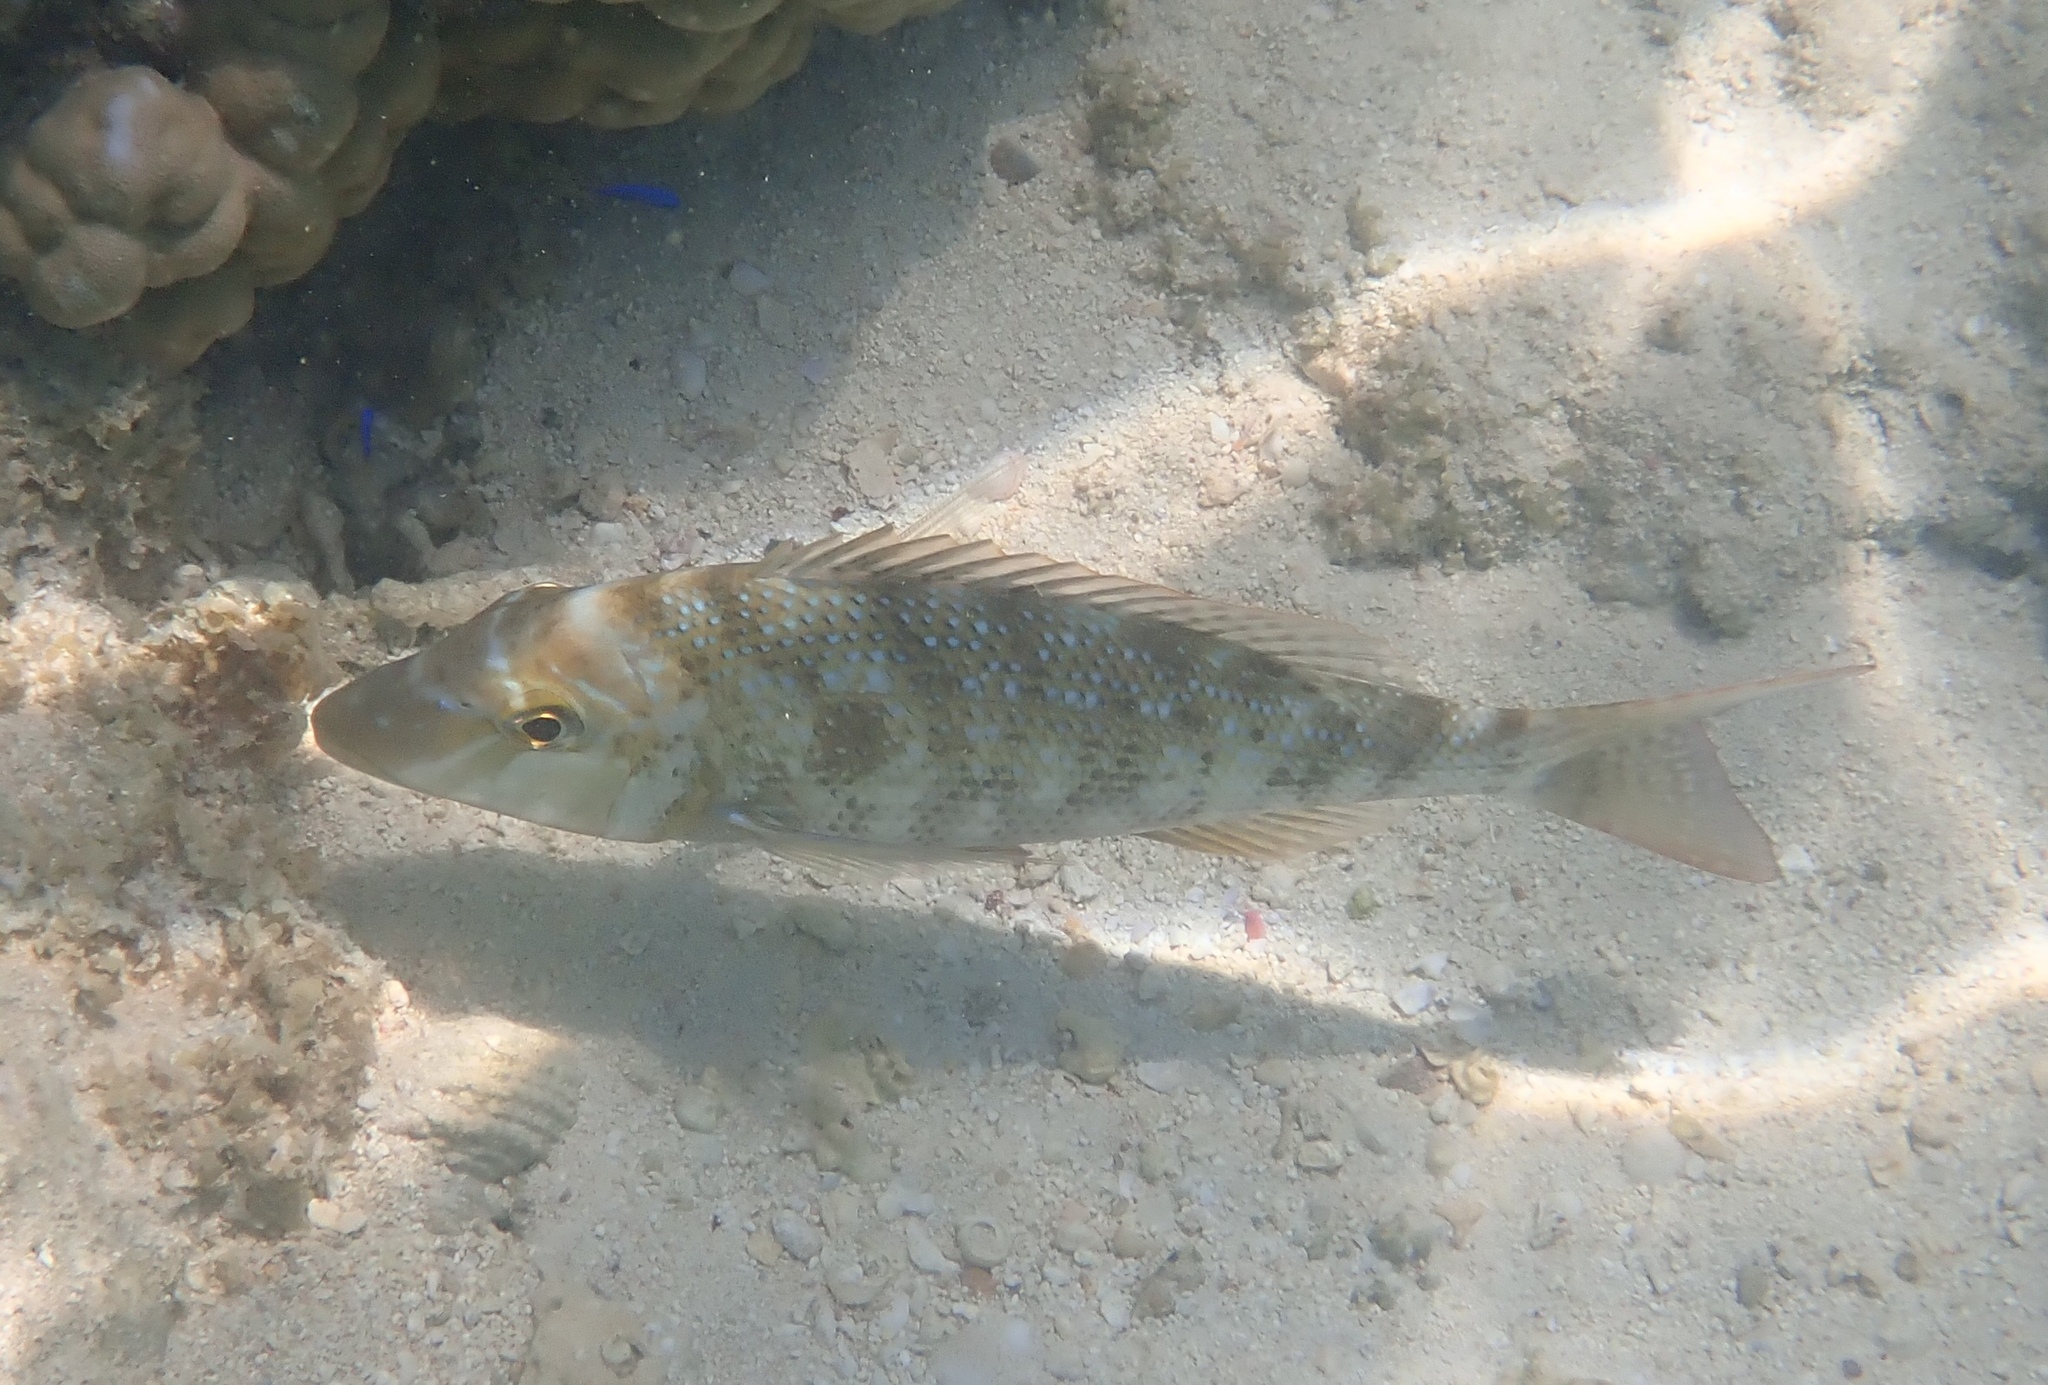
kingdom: Animalia
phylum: Chordata
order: Perciformes
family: Lethrinidae
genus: Lethrinus
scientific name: Lethrinus nebulosus
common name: Spangled emperor
